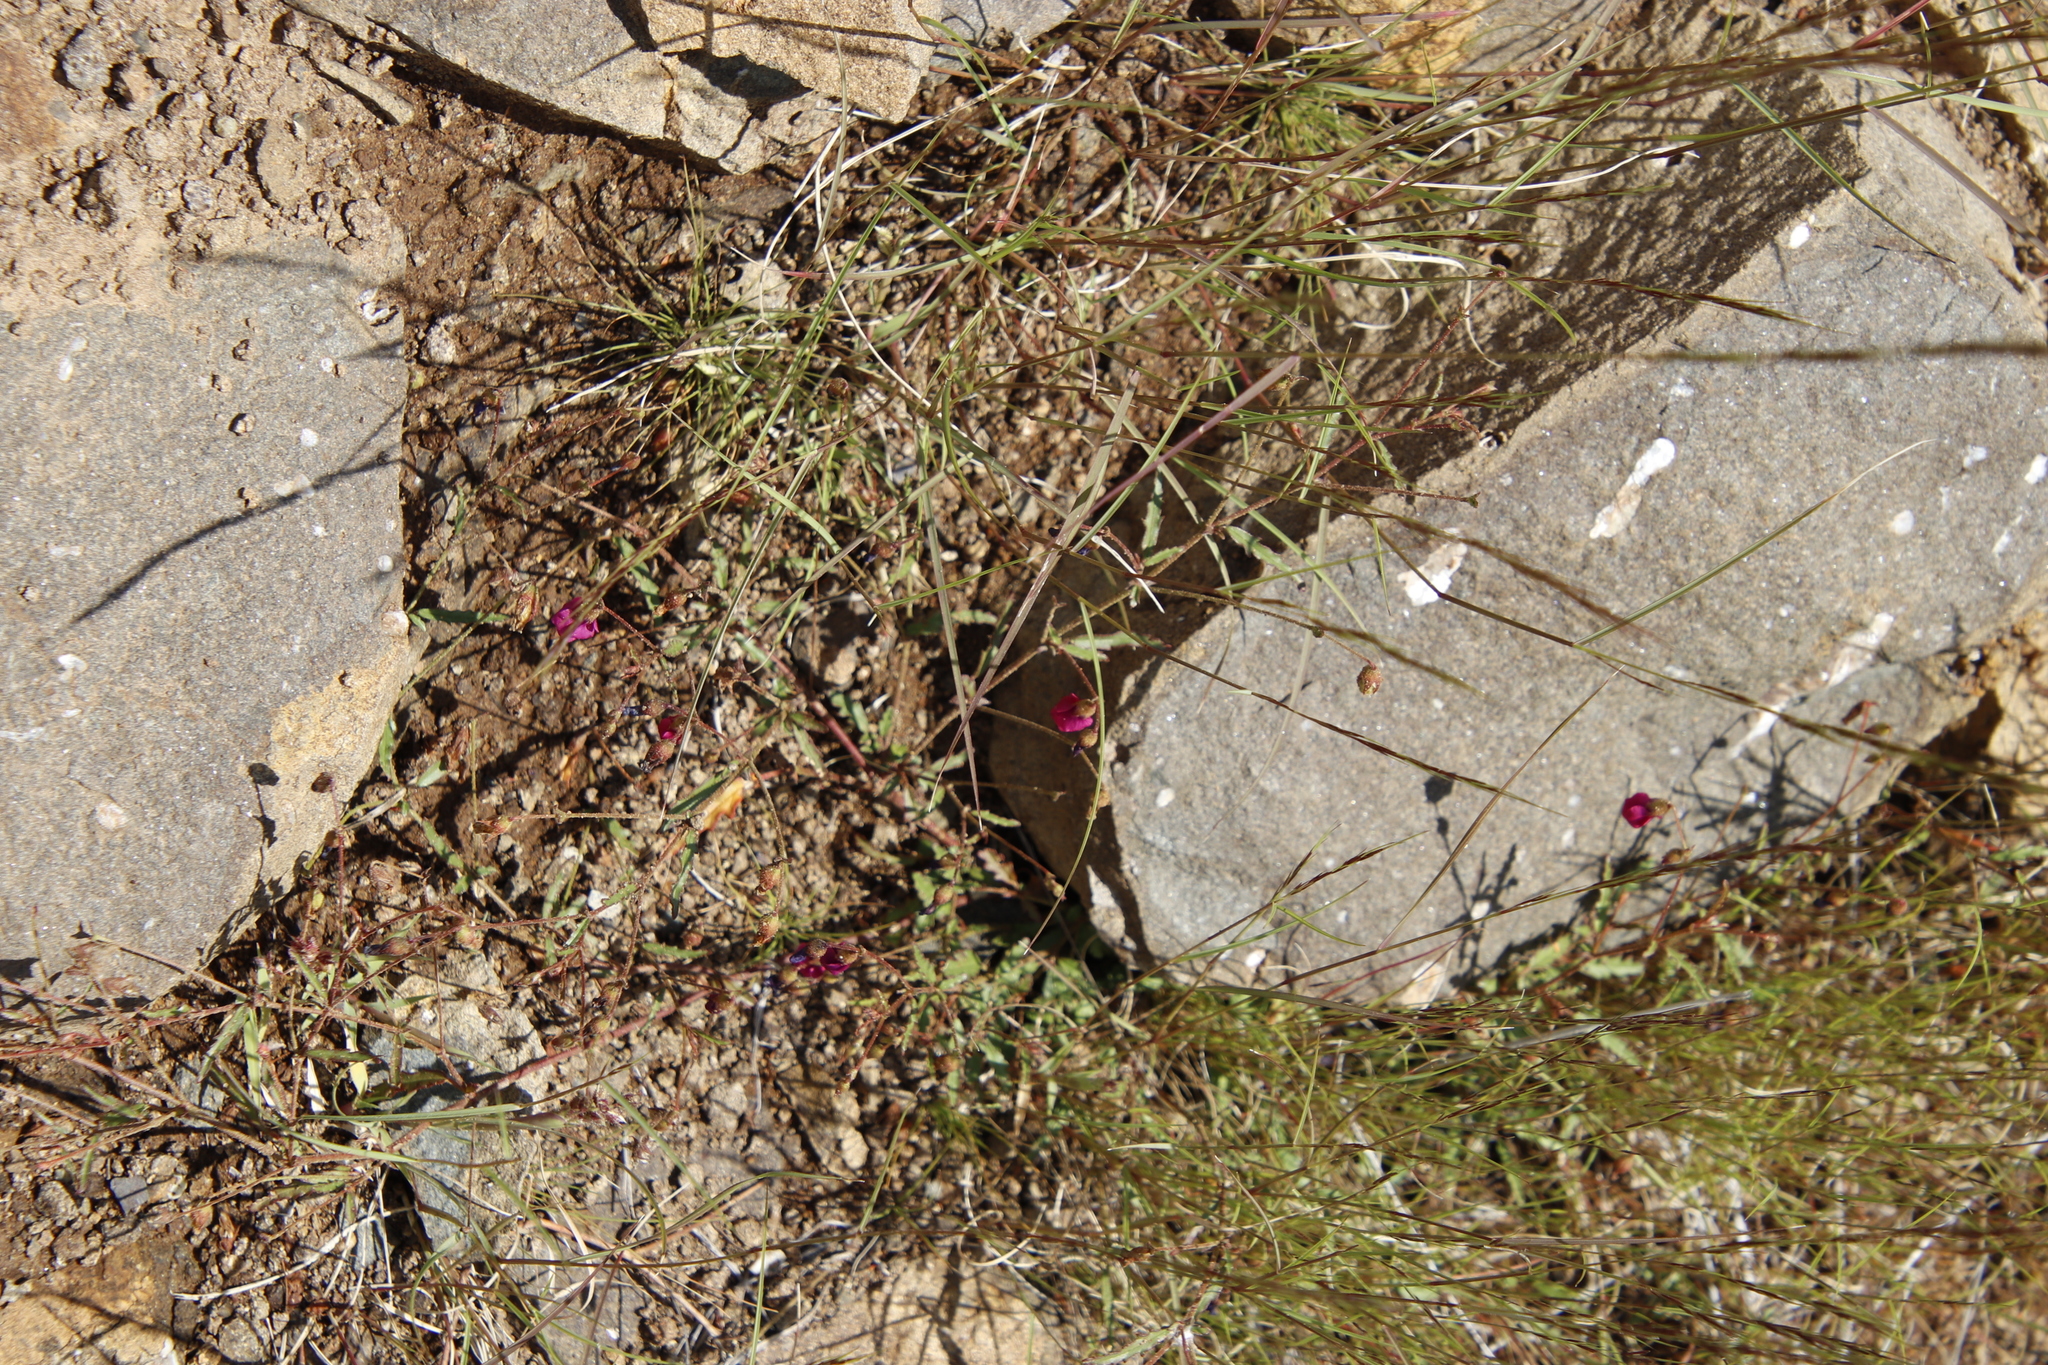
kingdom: Plantae
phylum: Tracheophyta
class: Magnoliopsida
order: Malvales
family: Malvaceae
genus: Hermannia
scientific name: Hermannia coccocarpa
